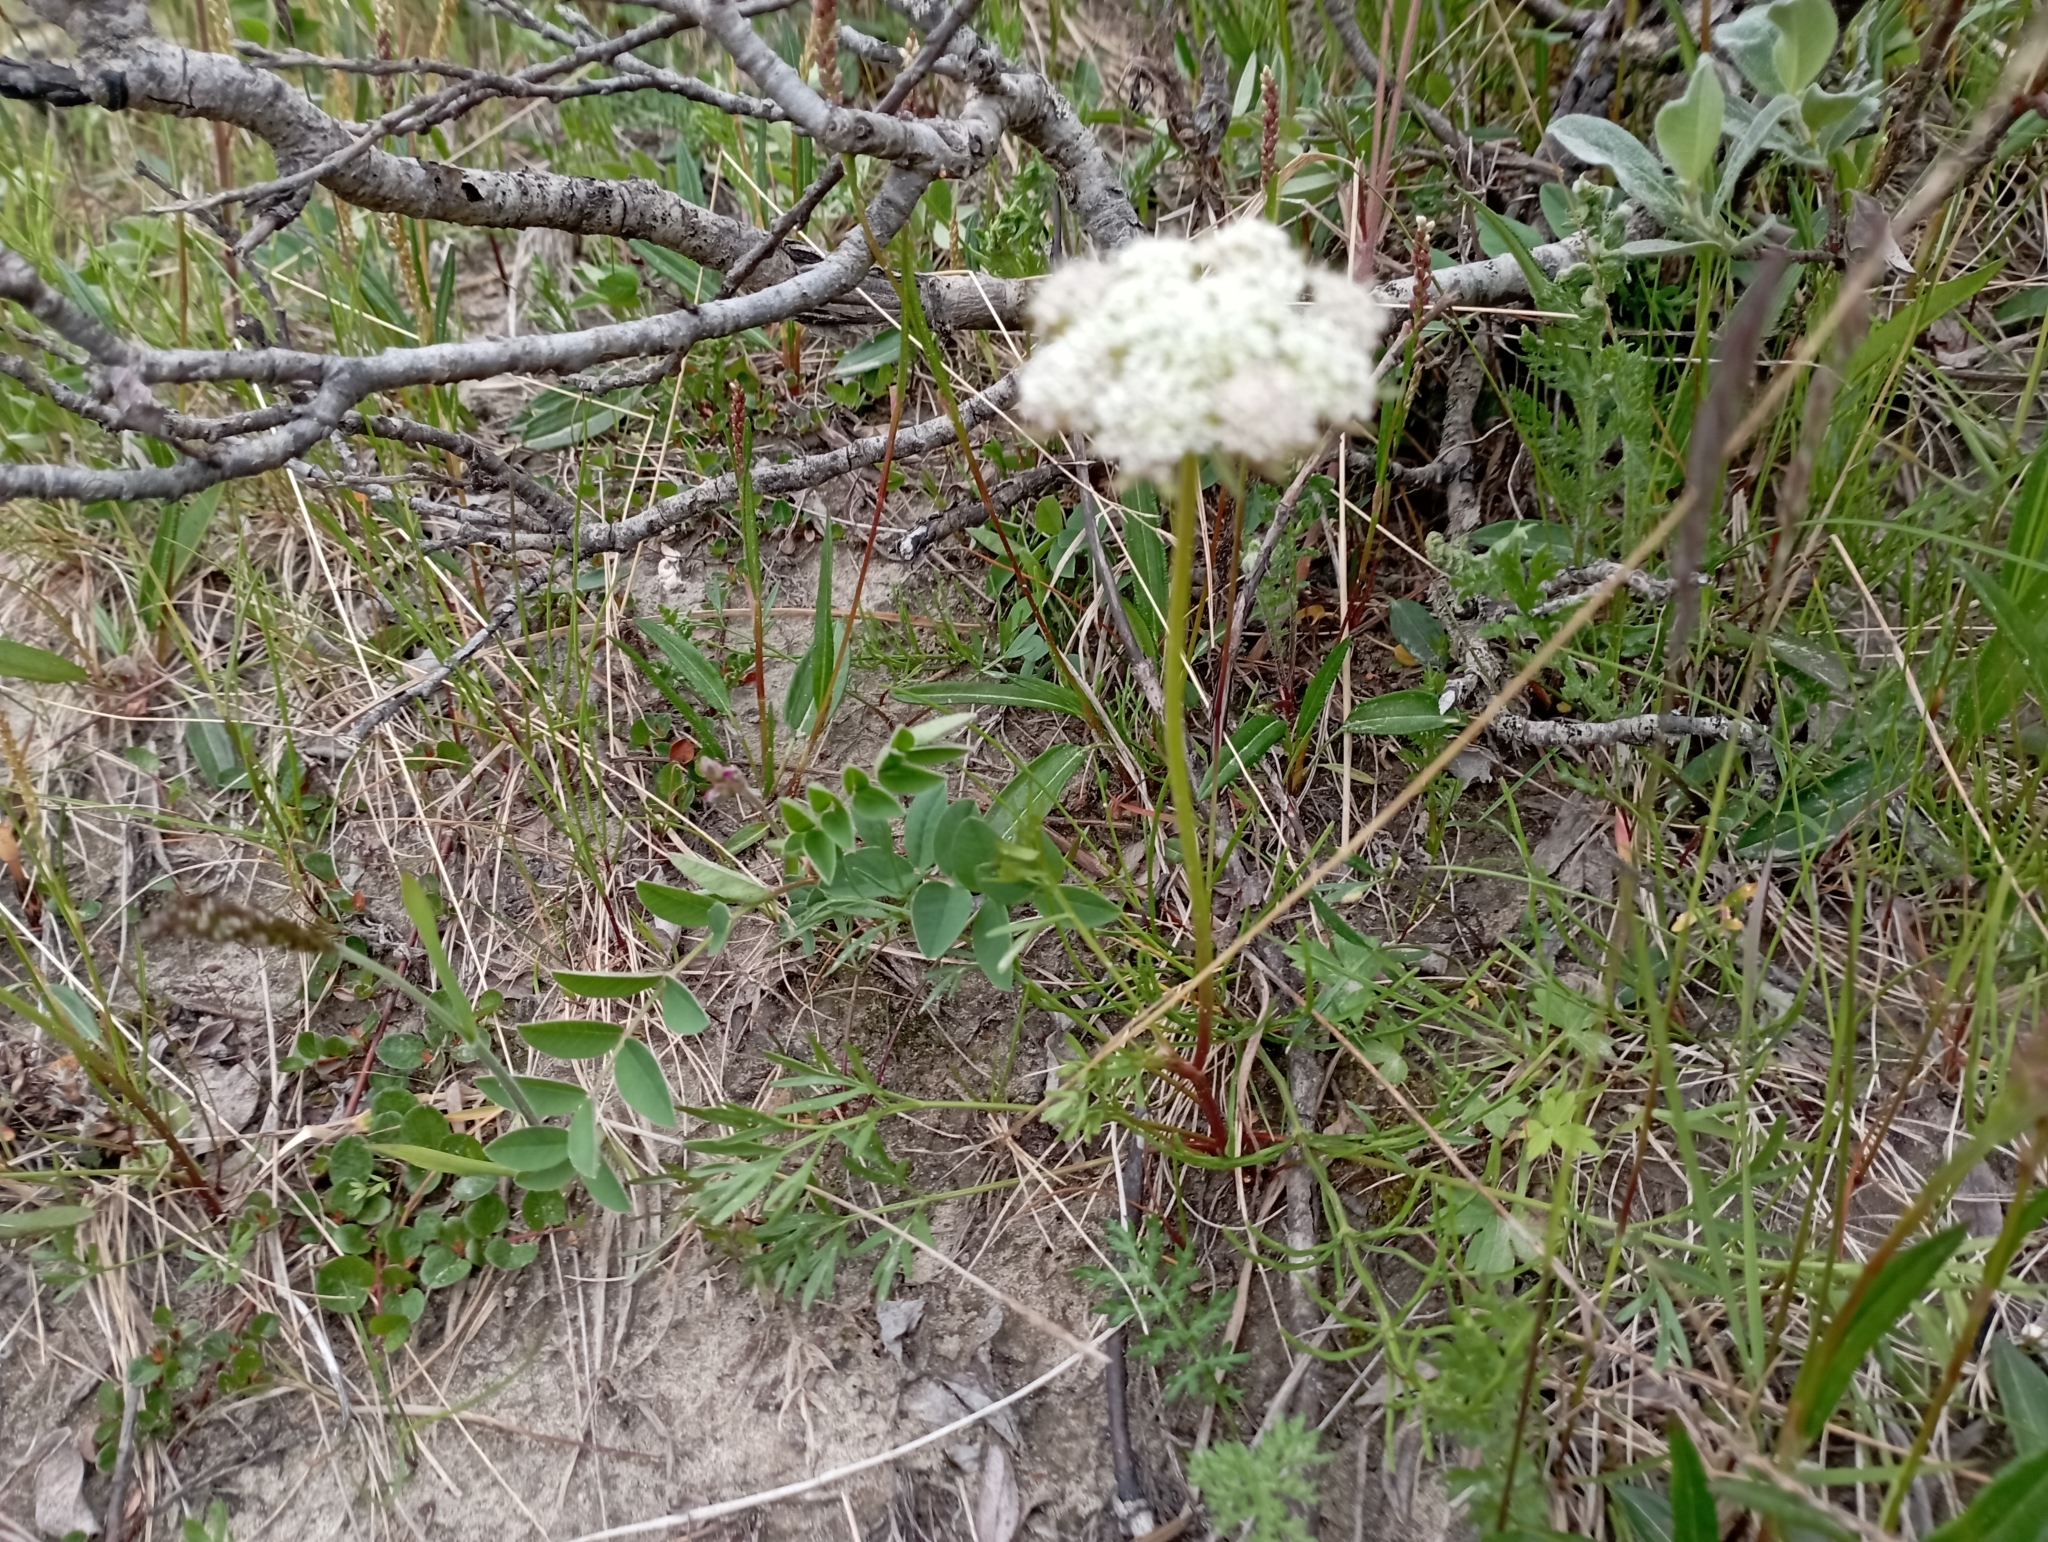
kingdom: Plantae
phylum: Tracheophyta
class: Magnoliopsida
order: Apiales
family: Apiaceae
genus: Pachypleurum
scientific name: Pachypleurum mutellinoides
